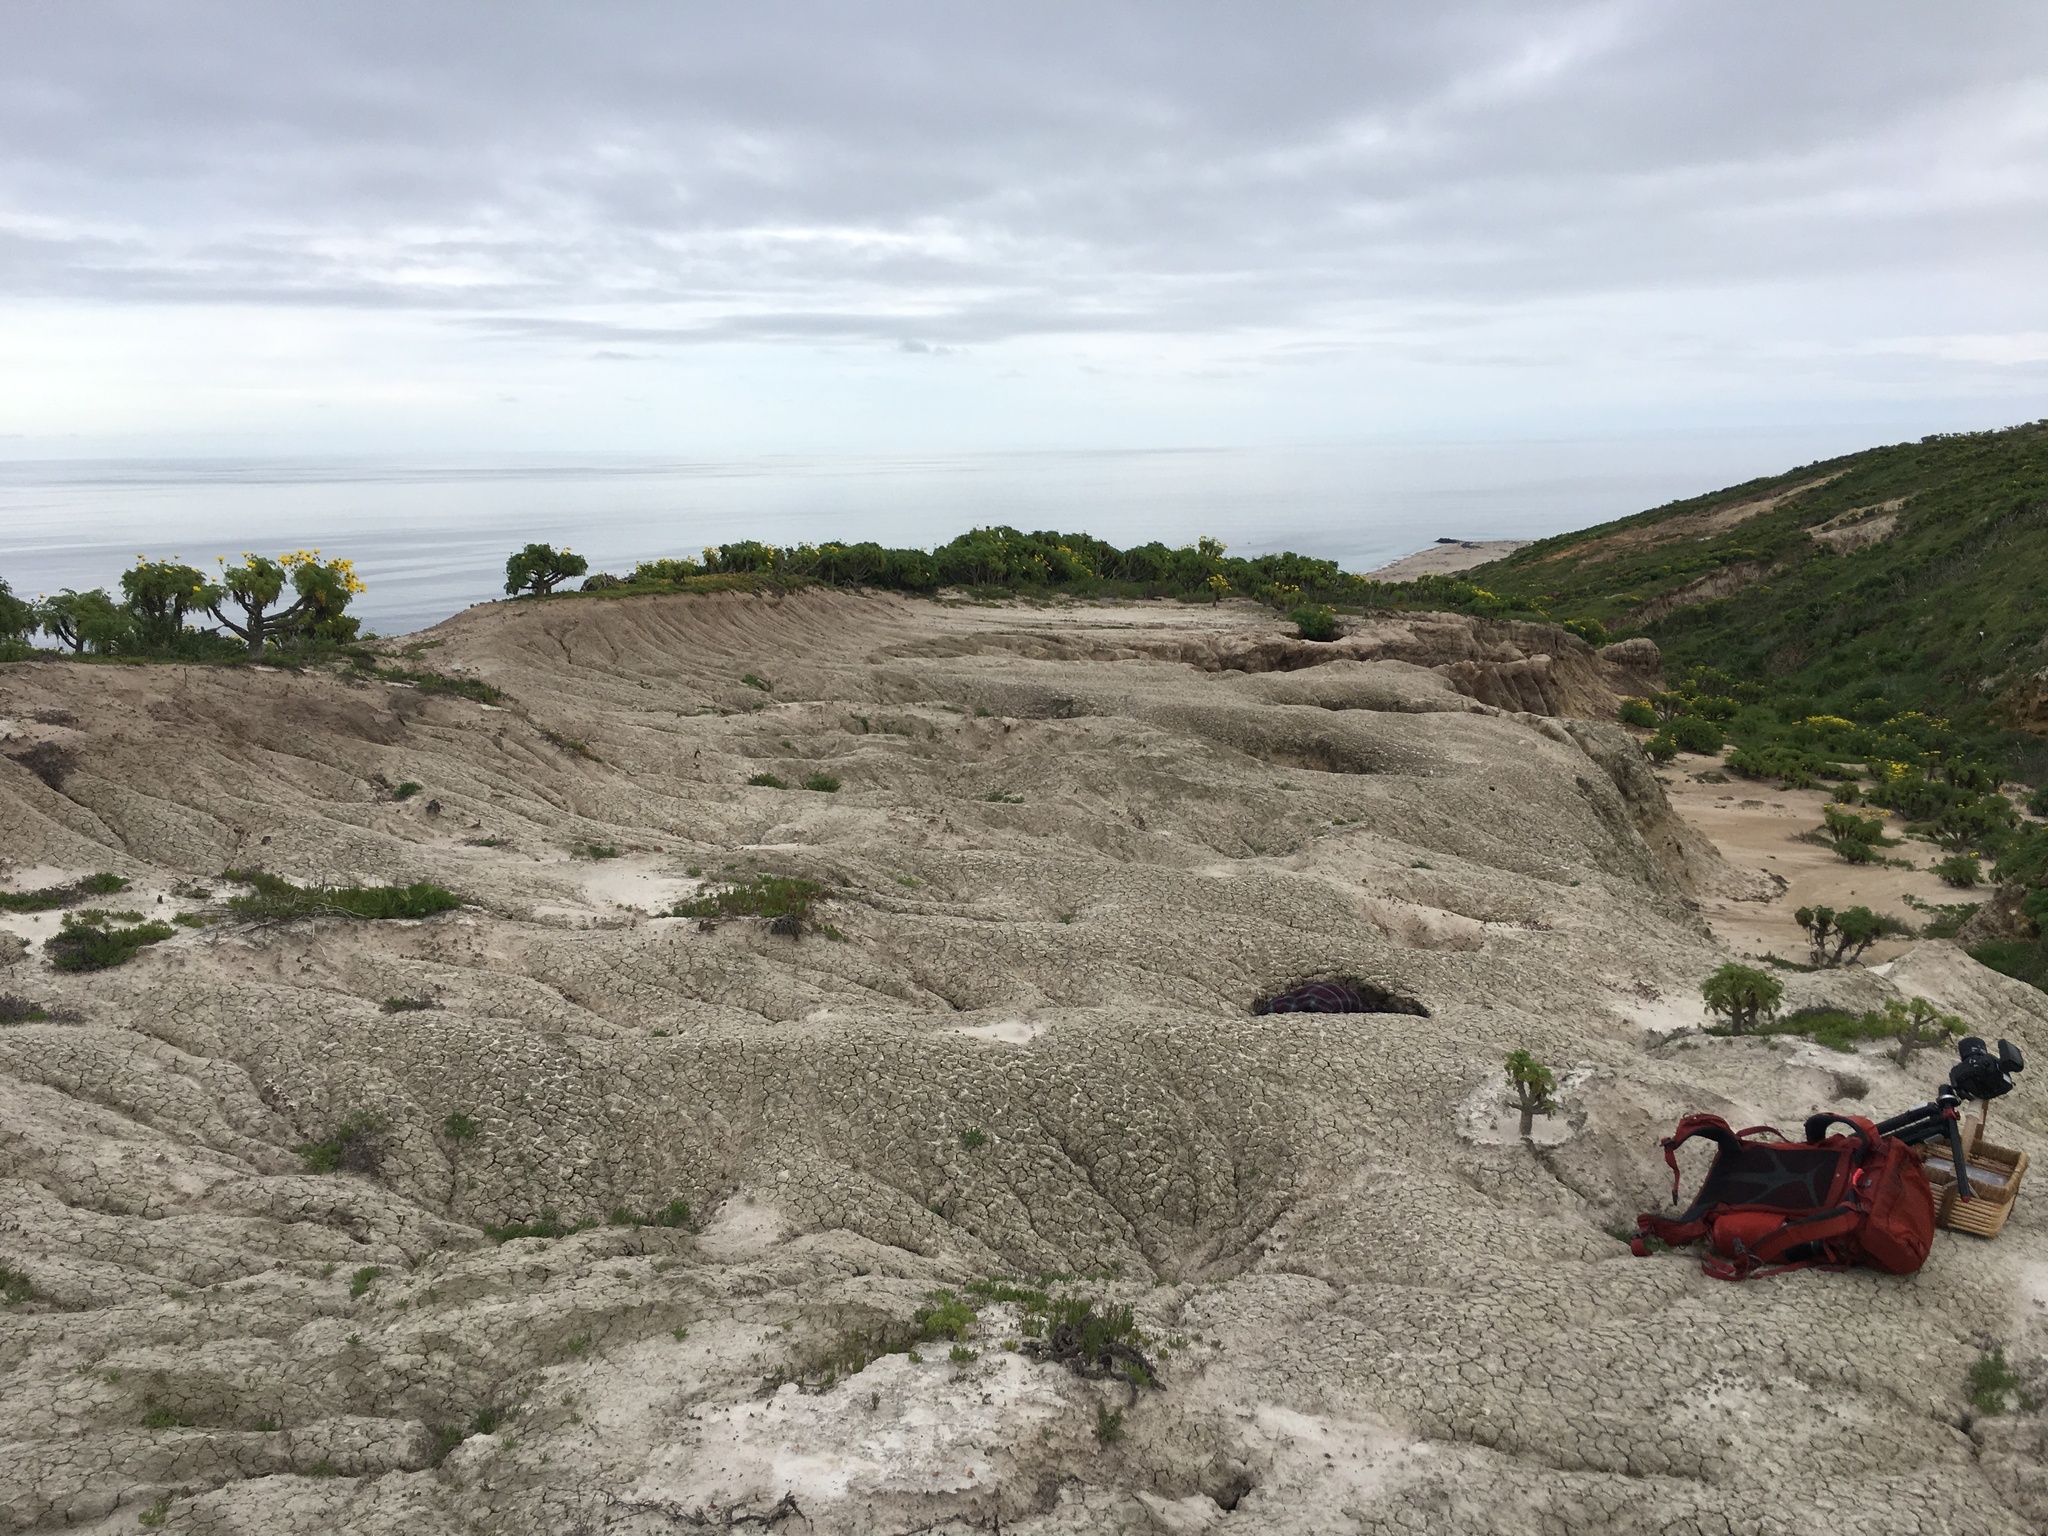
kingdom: Plantae
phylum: Tracheophyta
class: Magnoliopsida
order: Asterales
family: Asteraceae
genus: Coreopsis
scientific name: Coreopsis gigantea
